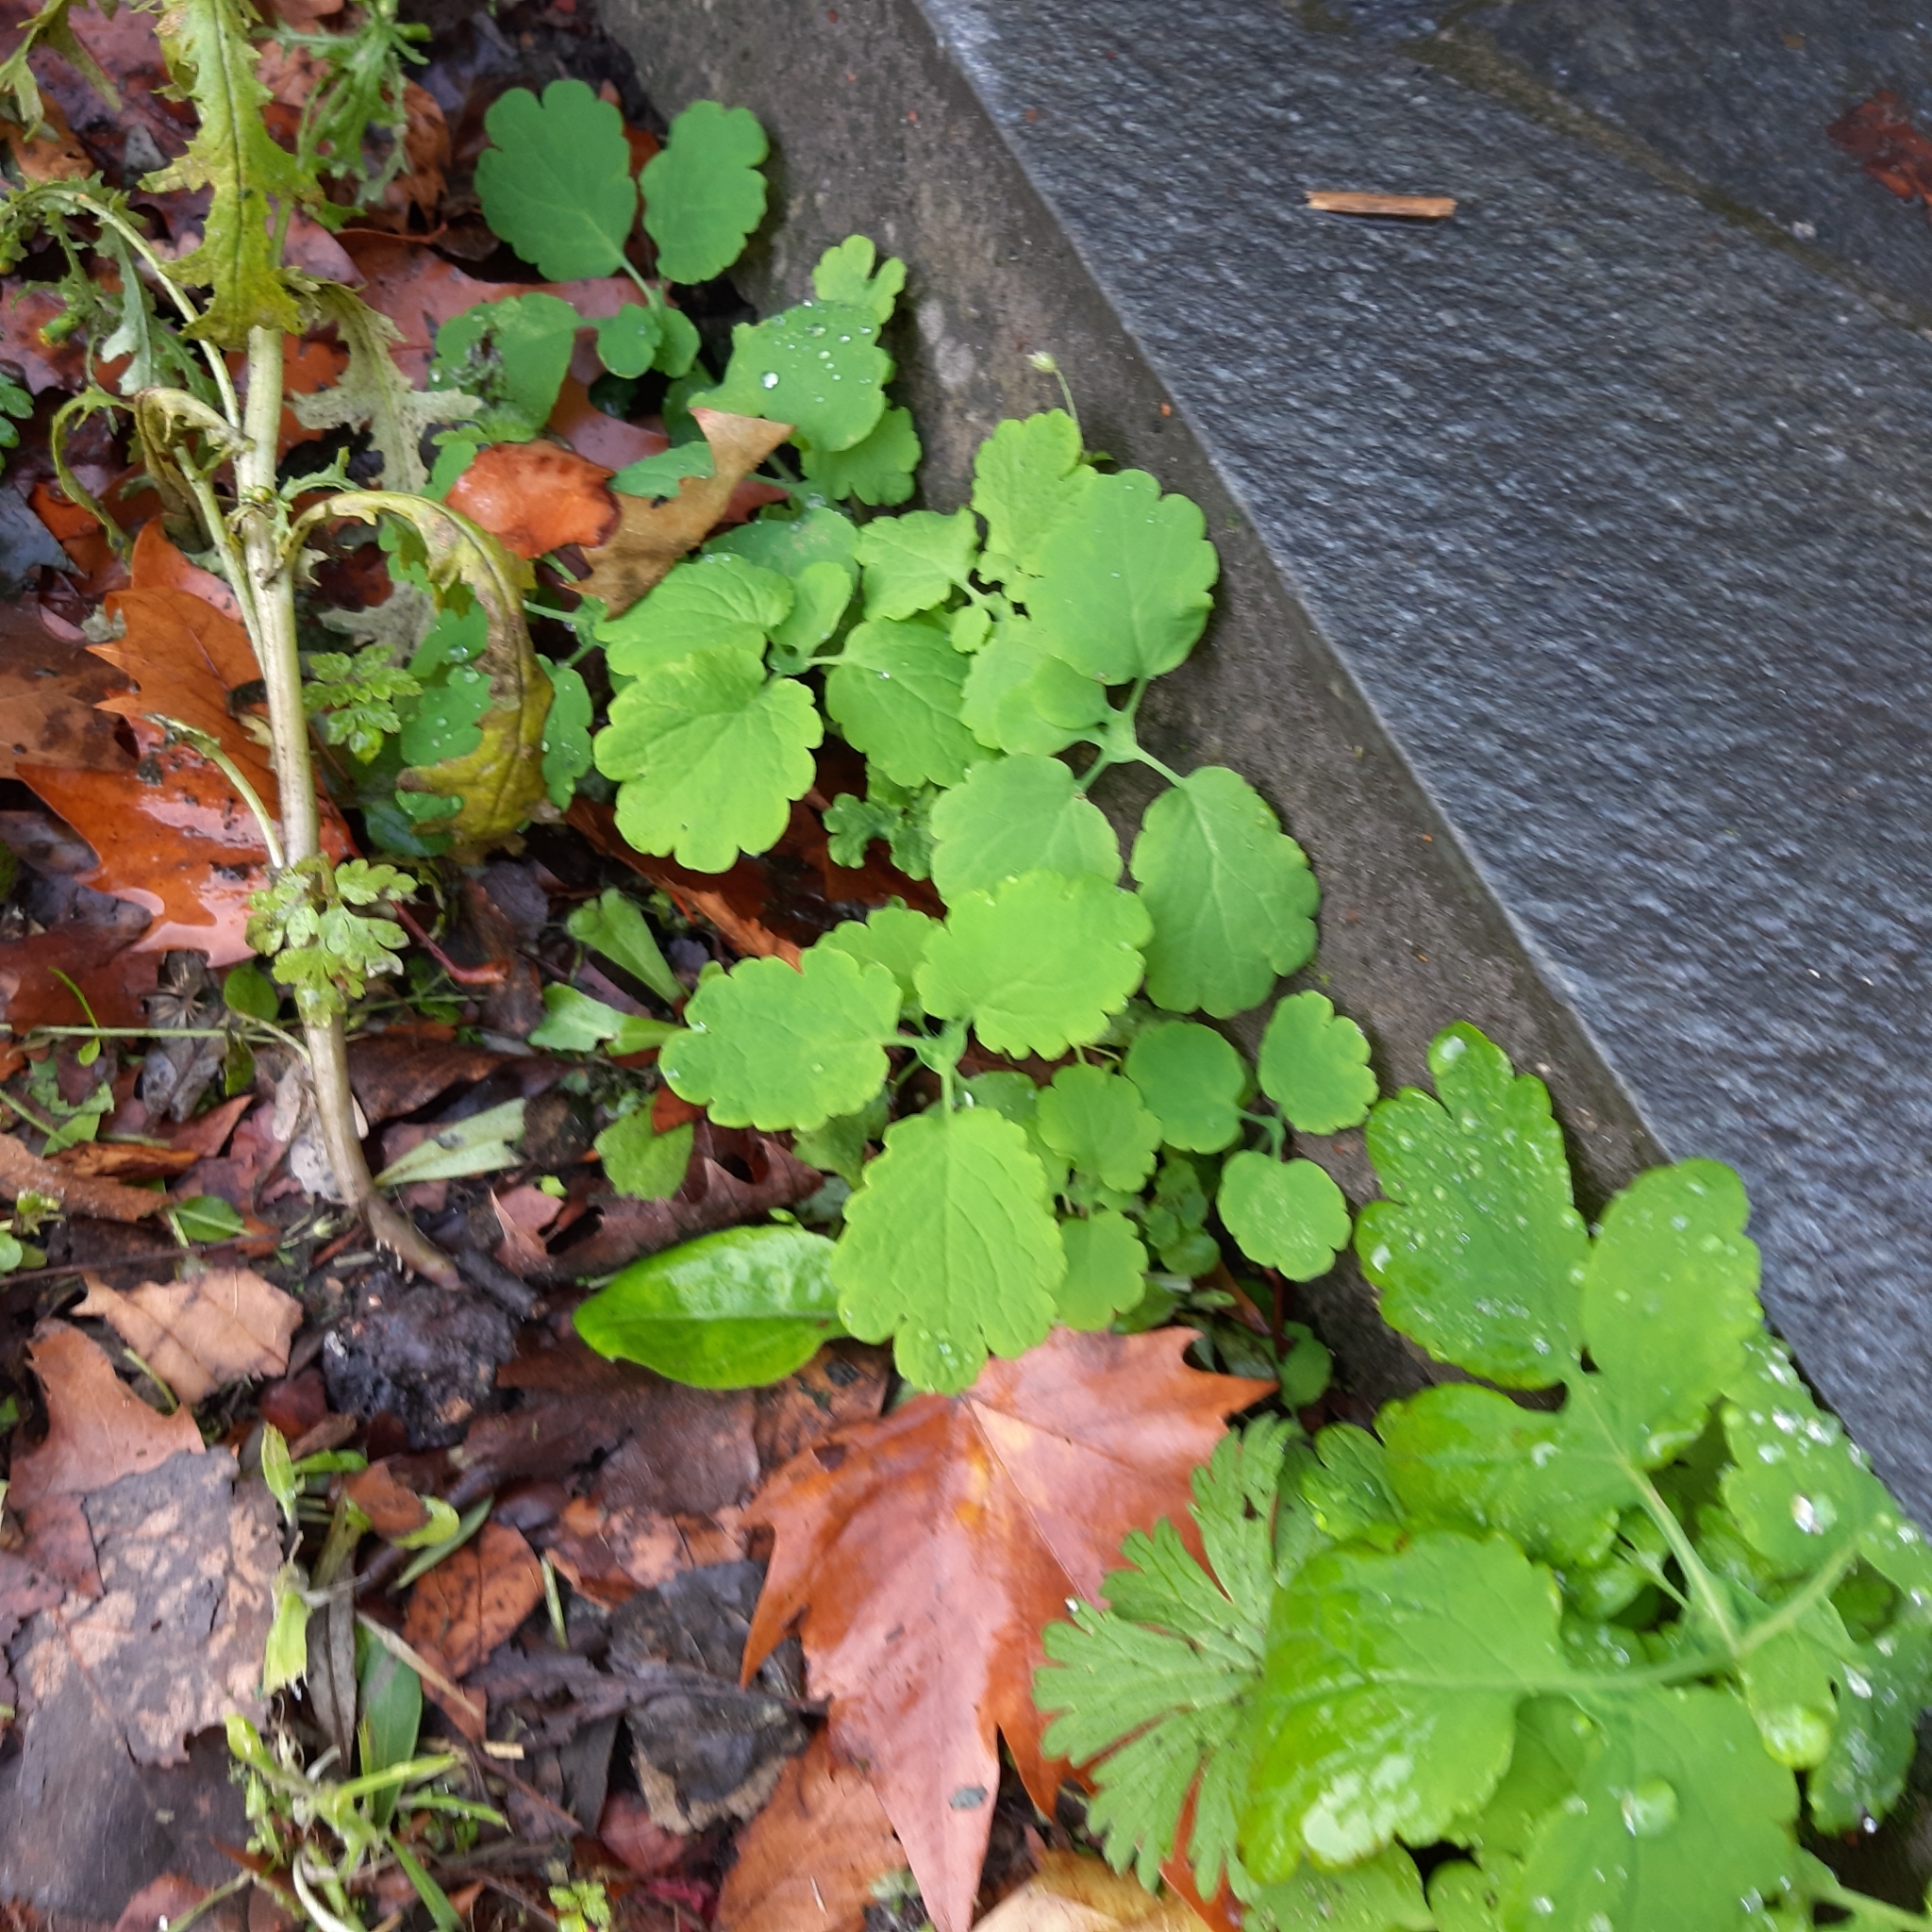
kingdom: Plantae
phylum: Tracheophyta
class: Magnoliopsida
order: Ranunculales
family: Papaveraceae
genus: Chelidonium
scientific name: Chelidonium majus
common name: Greater celandine
